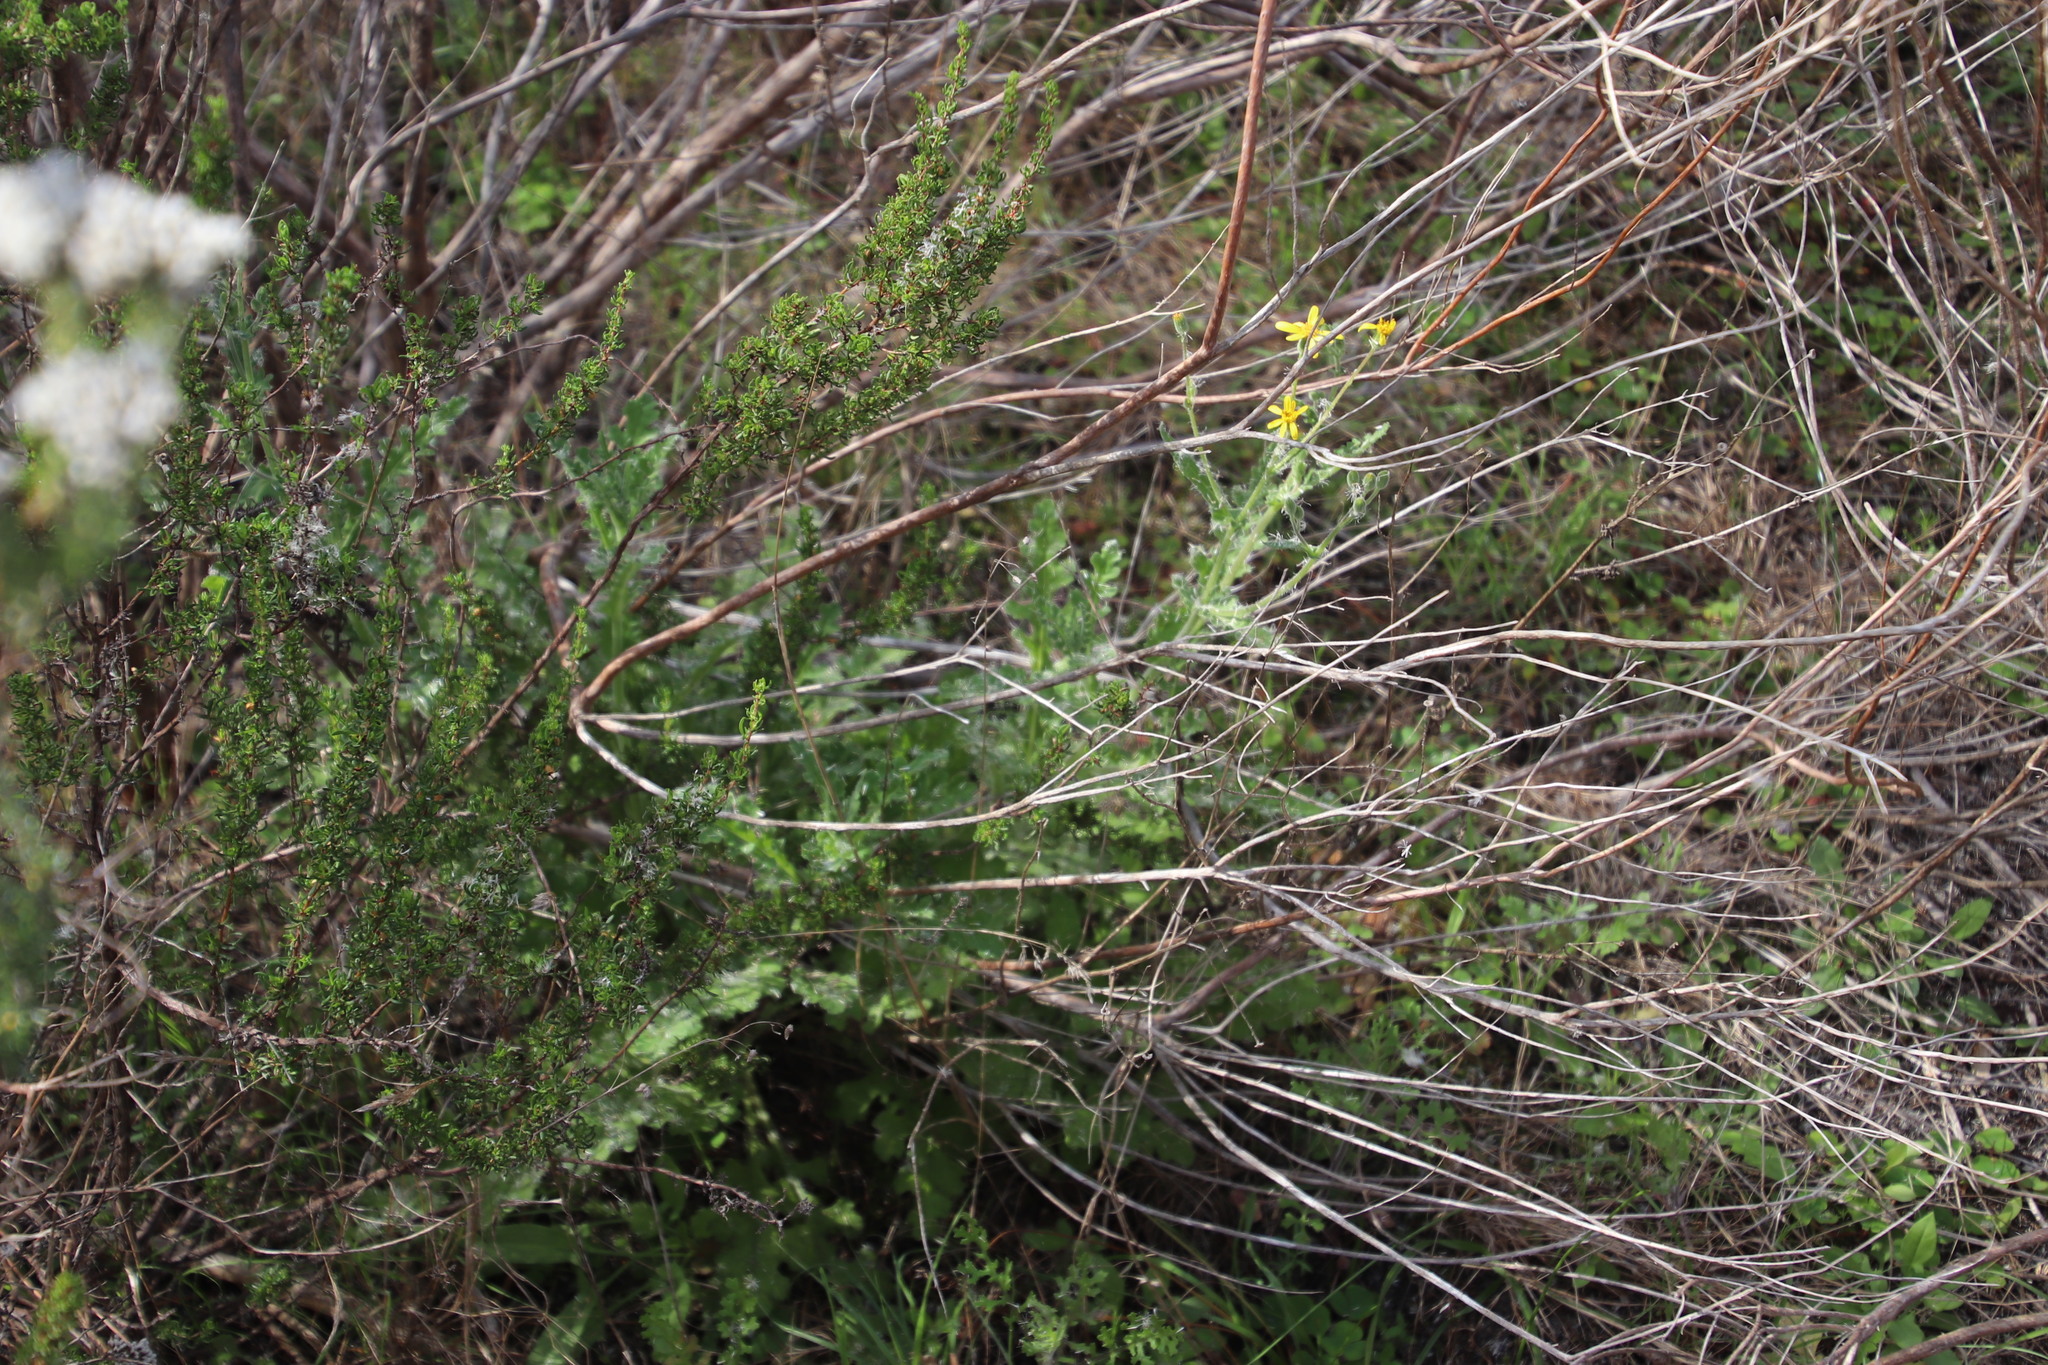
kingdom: Plantae
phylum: Tracheophyta
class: Magnoliopsida
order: Asterales
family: Asteraceae
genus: Senecio
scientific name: Senecio hastatus
